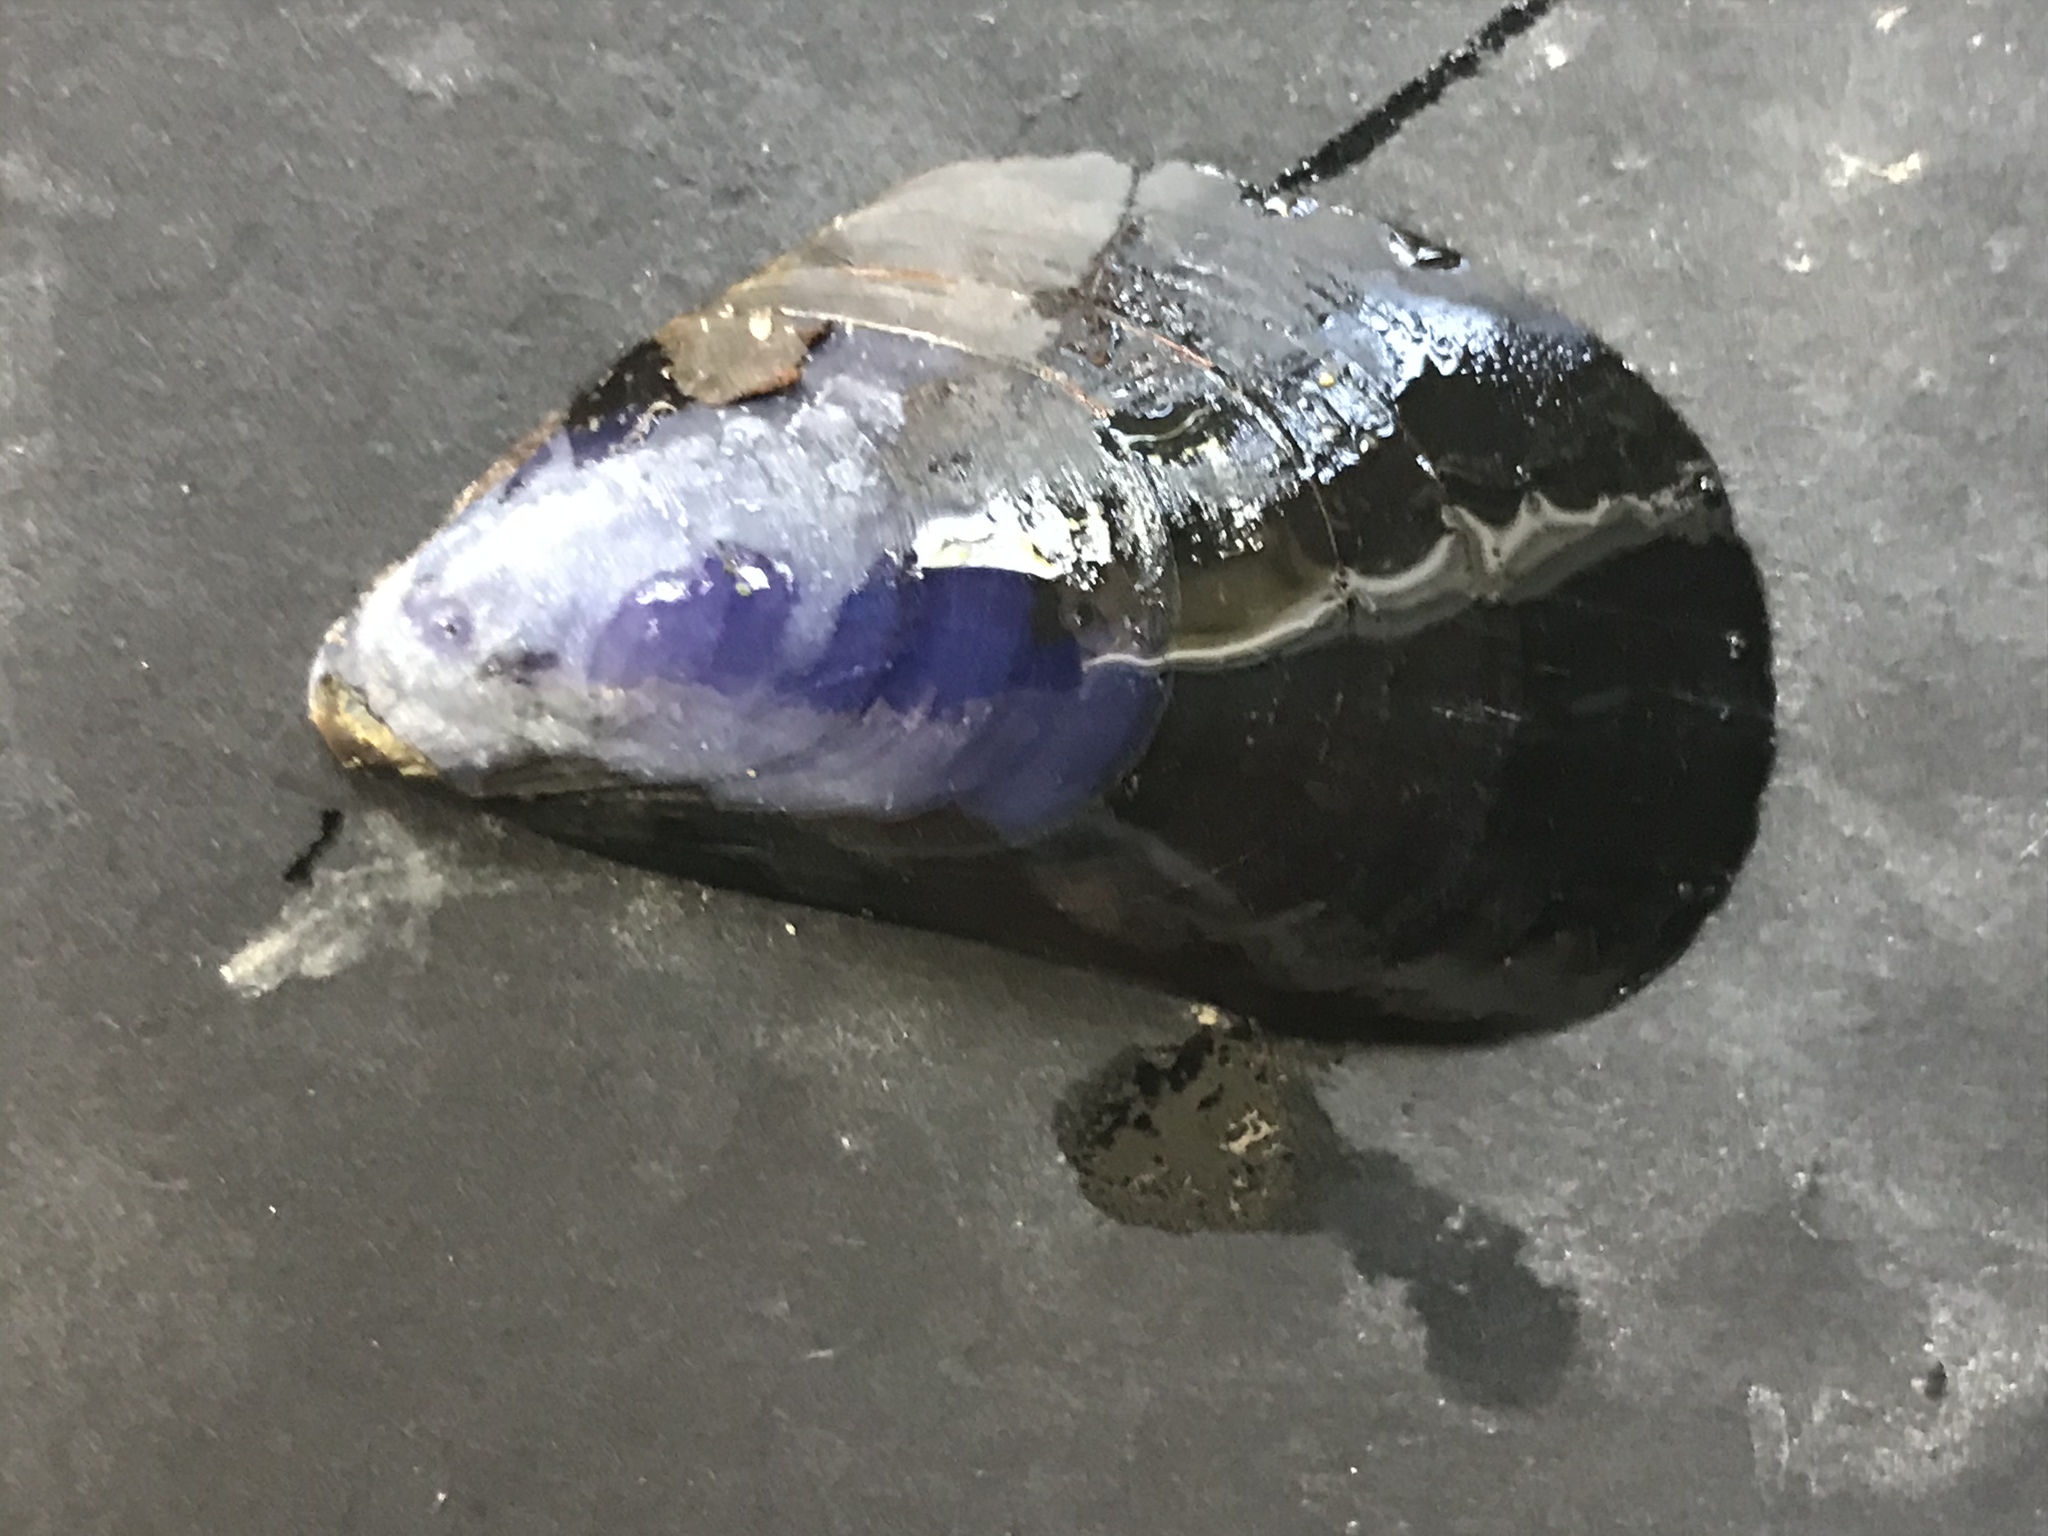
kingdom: Animalia
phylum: Mollusca
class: Bivalvia
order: Mytilida
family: Mytilidae
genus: Mytilus
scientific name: Mytilus
